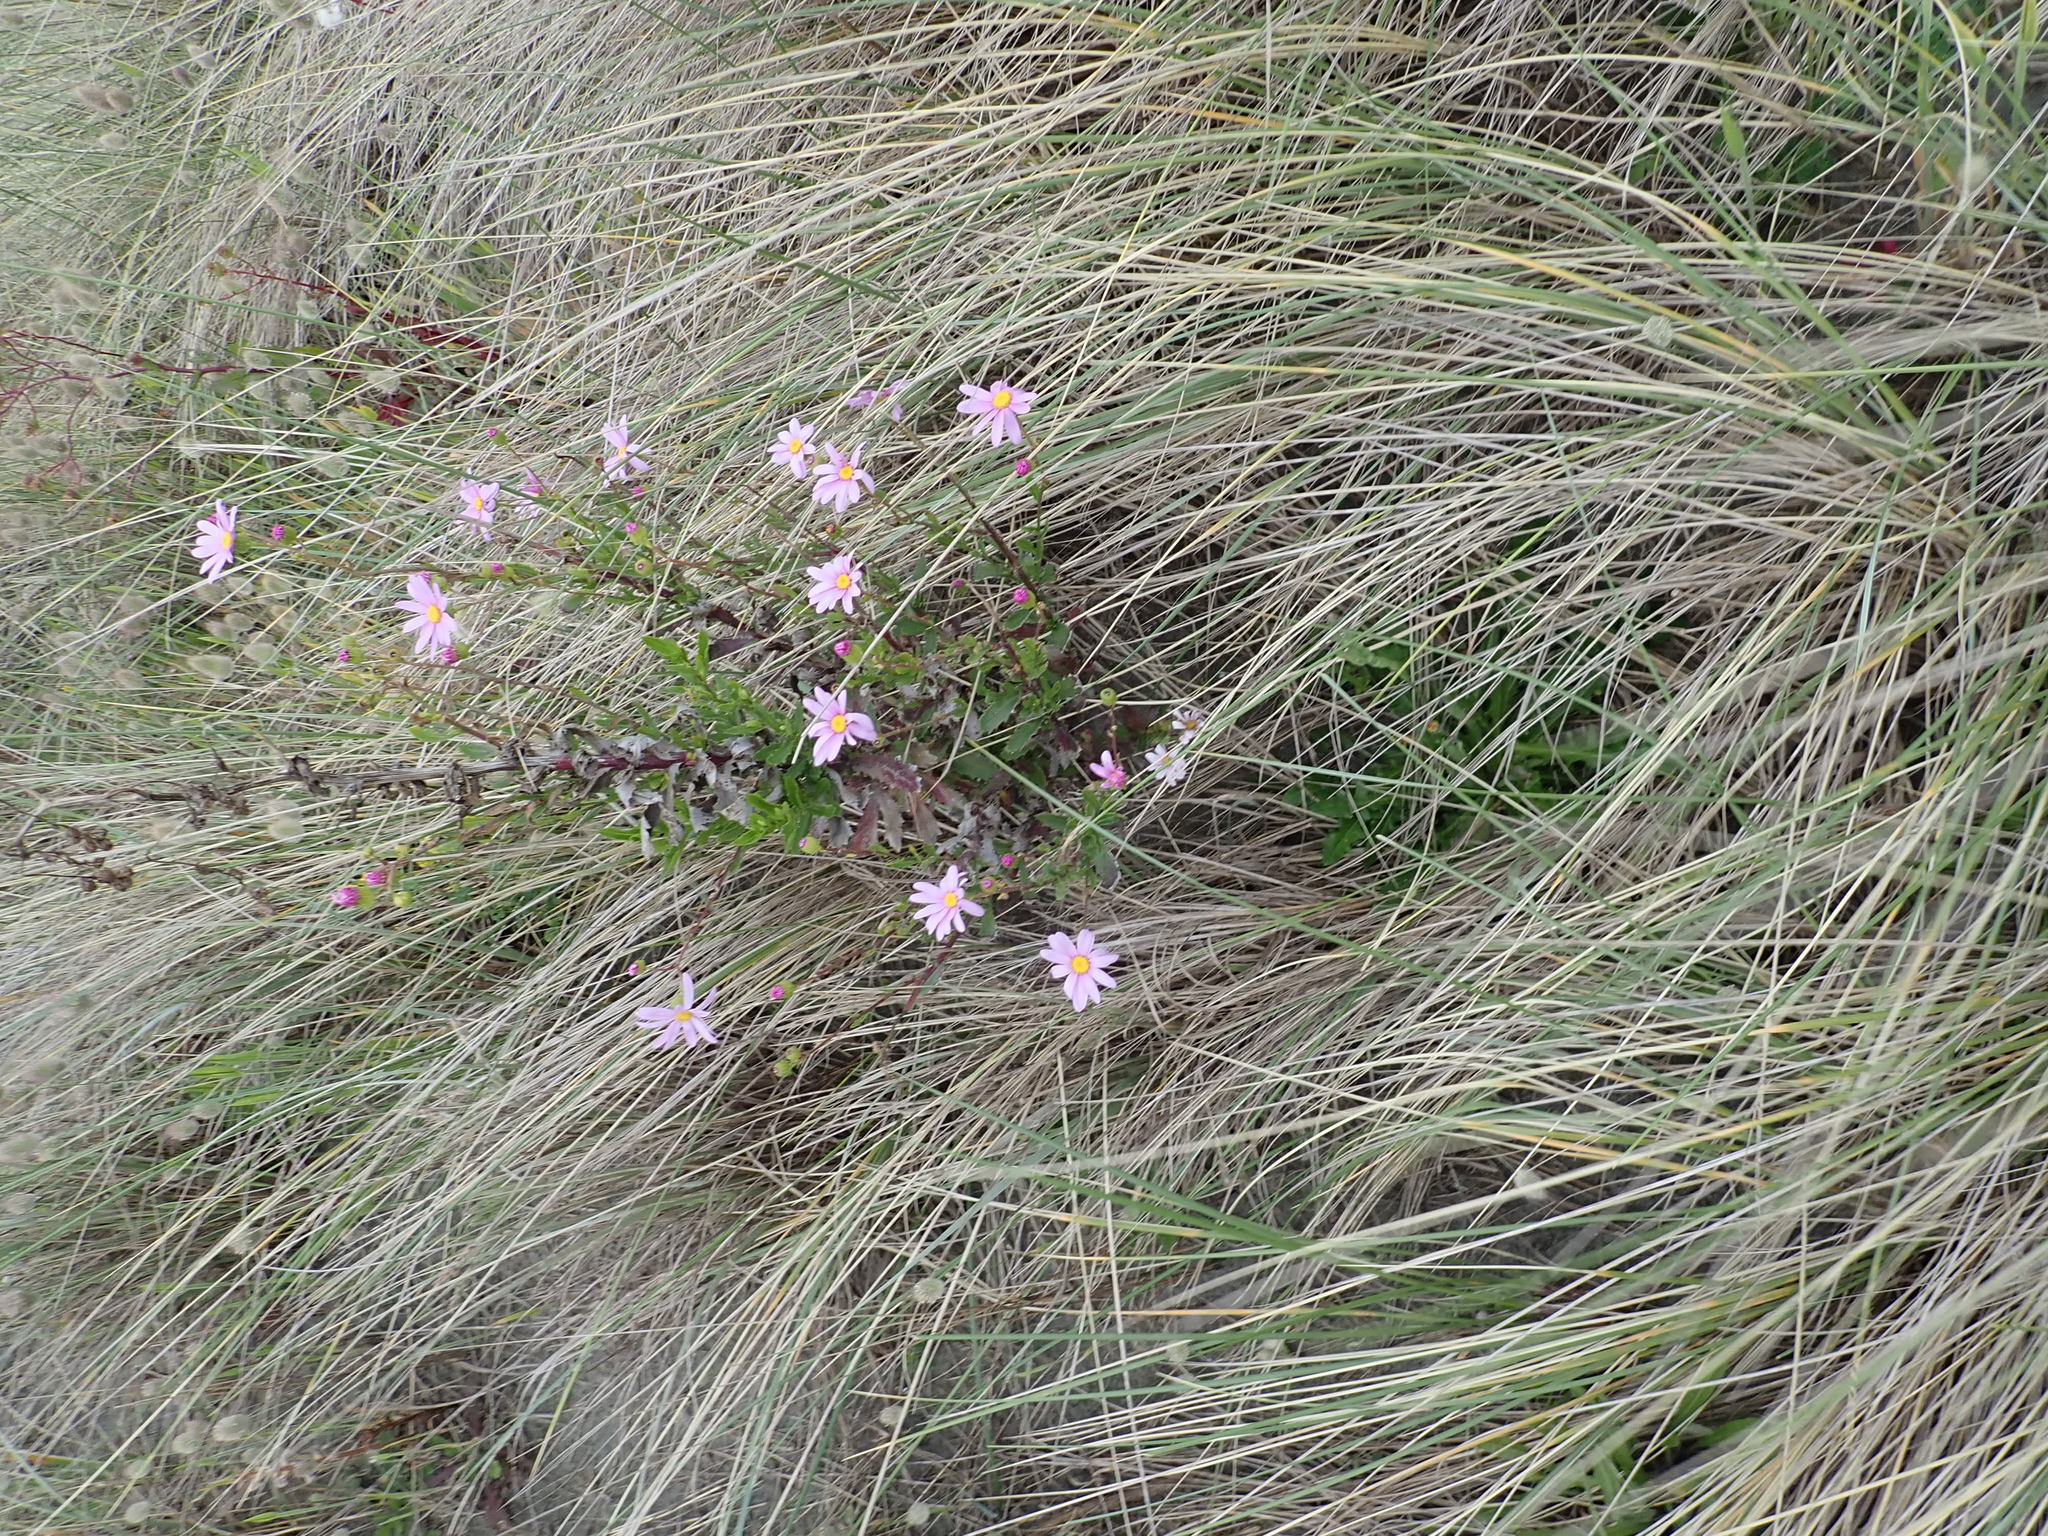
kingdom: Plantae
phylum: Tracheophyta
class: Magnoliopsida
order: Asterales
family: Asteraceae
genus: Senecio
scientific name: Senecio glastifolius
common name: Woad-leaved ragwort
